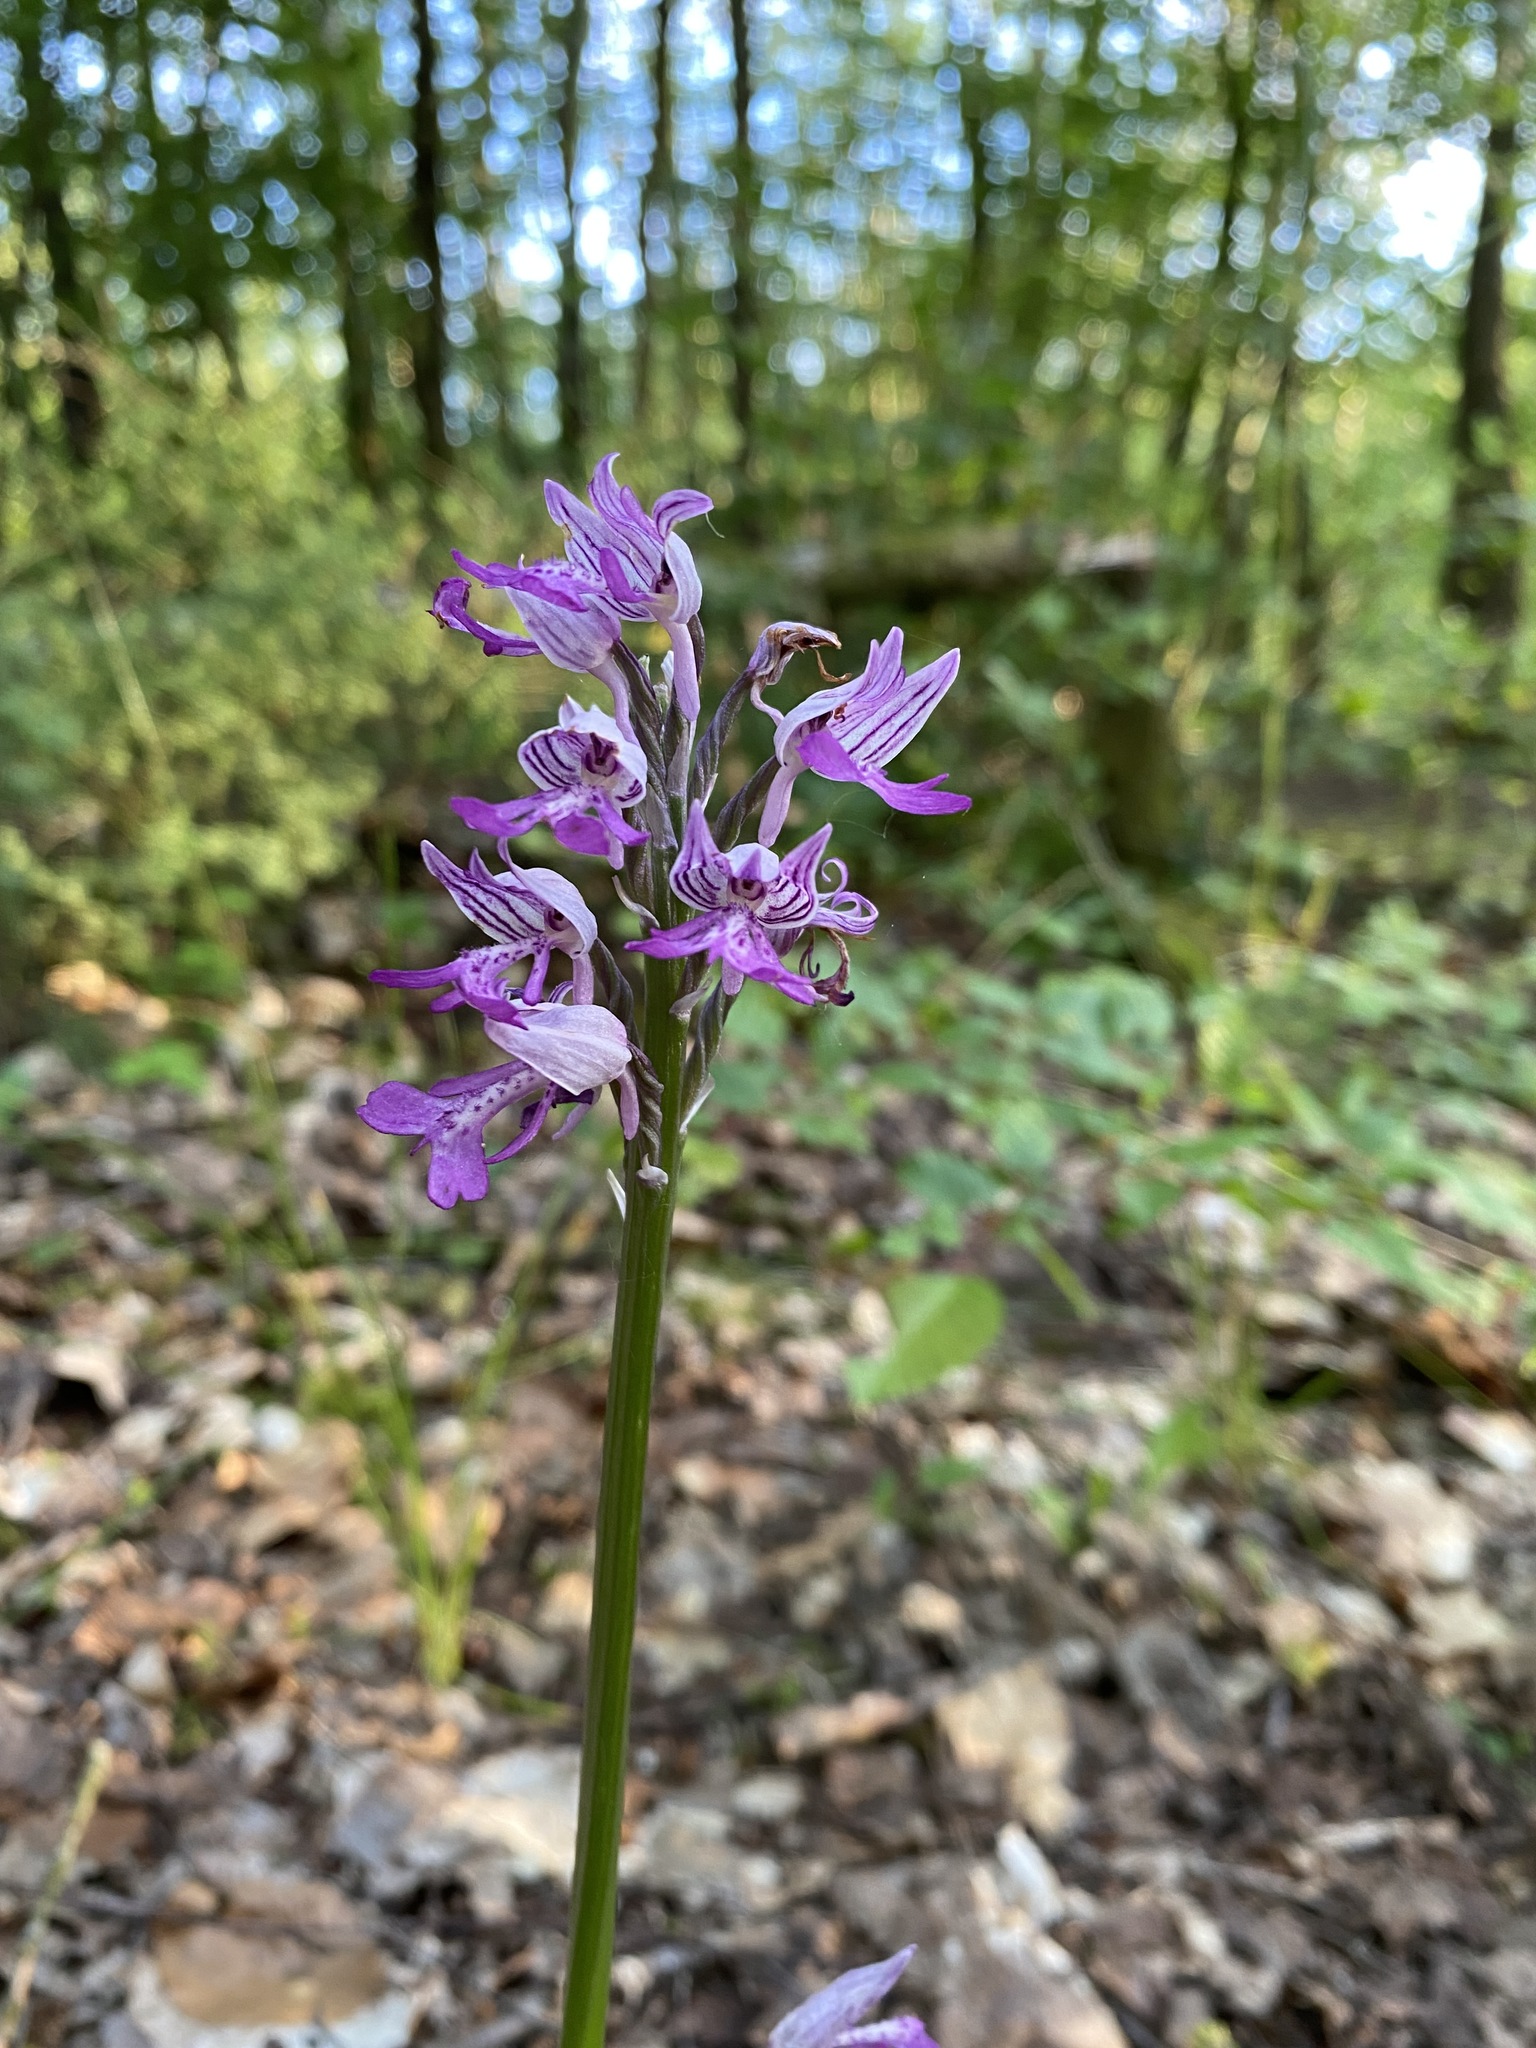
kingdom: Plantae
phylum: Tracheophyta
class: Liliopsida
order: Asparagales
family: Orchidaceae
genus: Orchis
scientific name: Orchis militaris
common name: Military orchid
